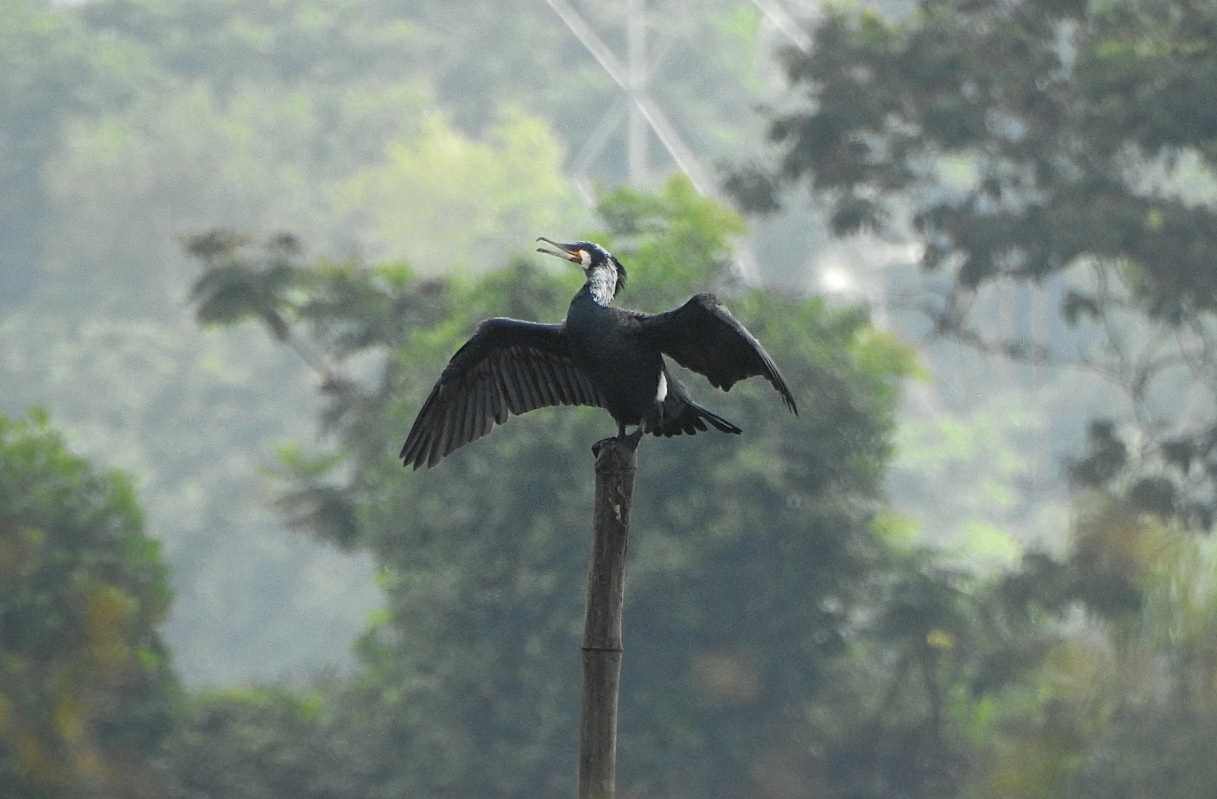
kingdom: Animalia
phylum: Chordata
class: Aves
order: Suliformes
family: Phalacrocoracidae
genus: Phalacrocorax
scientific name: Phalacrocorax carbo
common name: Great cormorant
